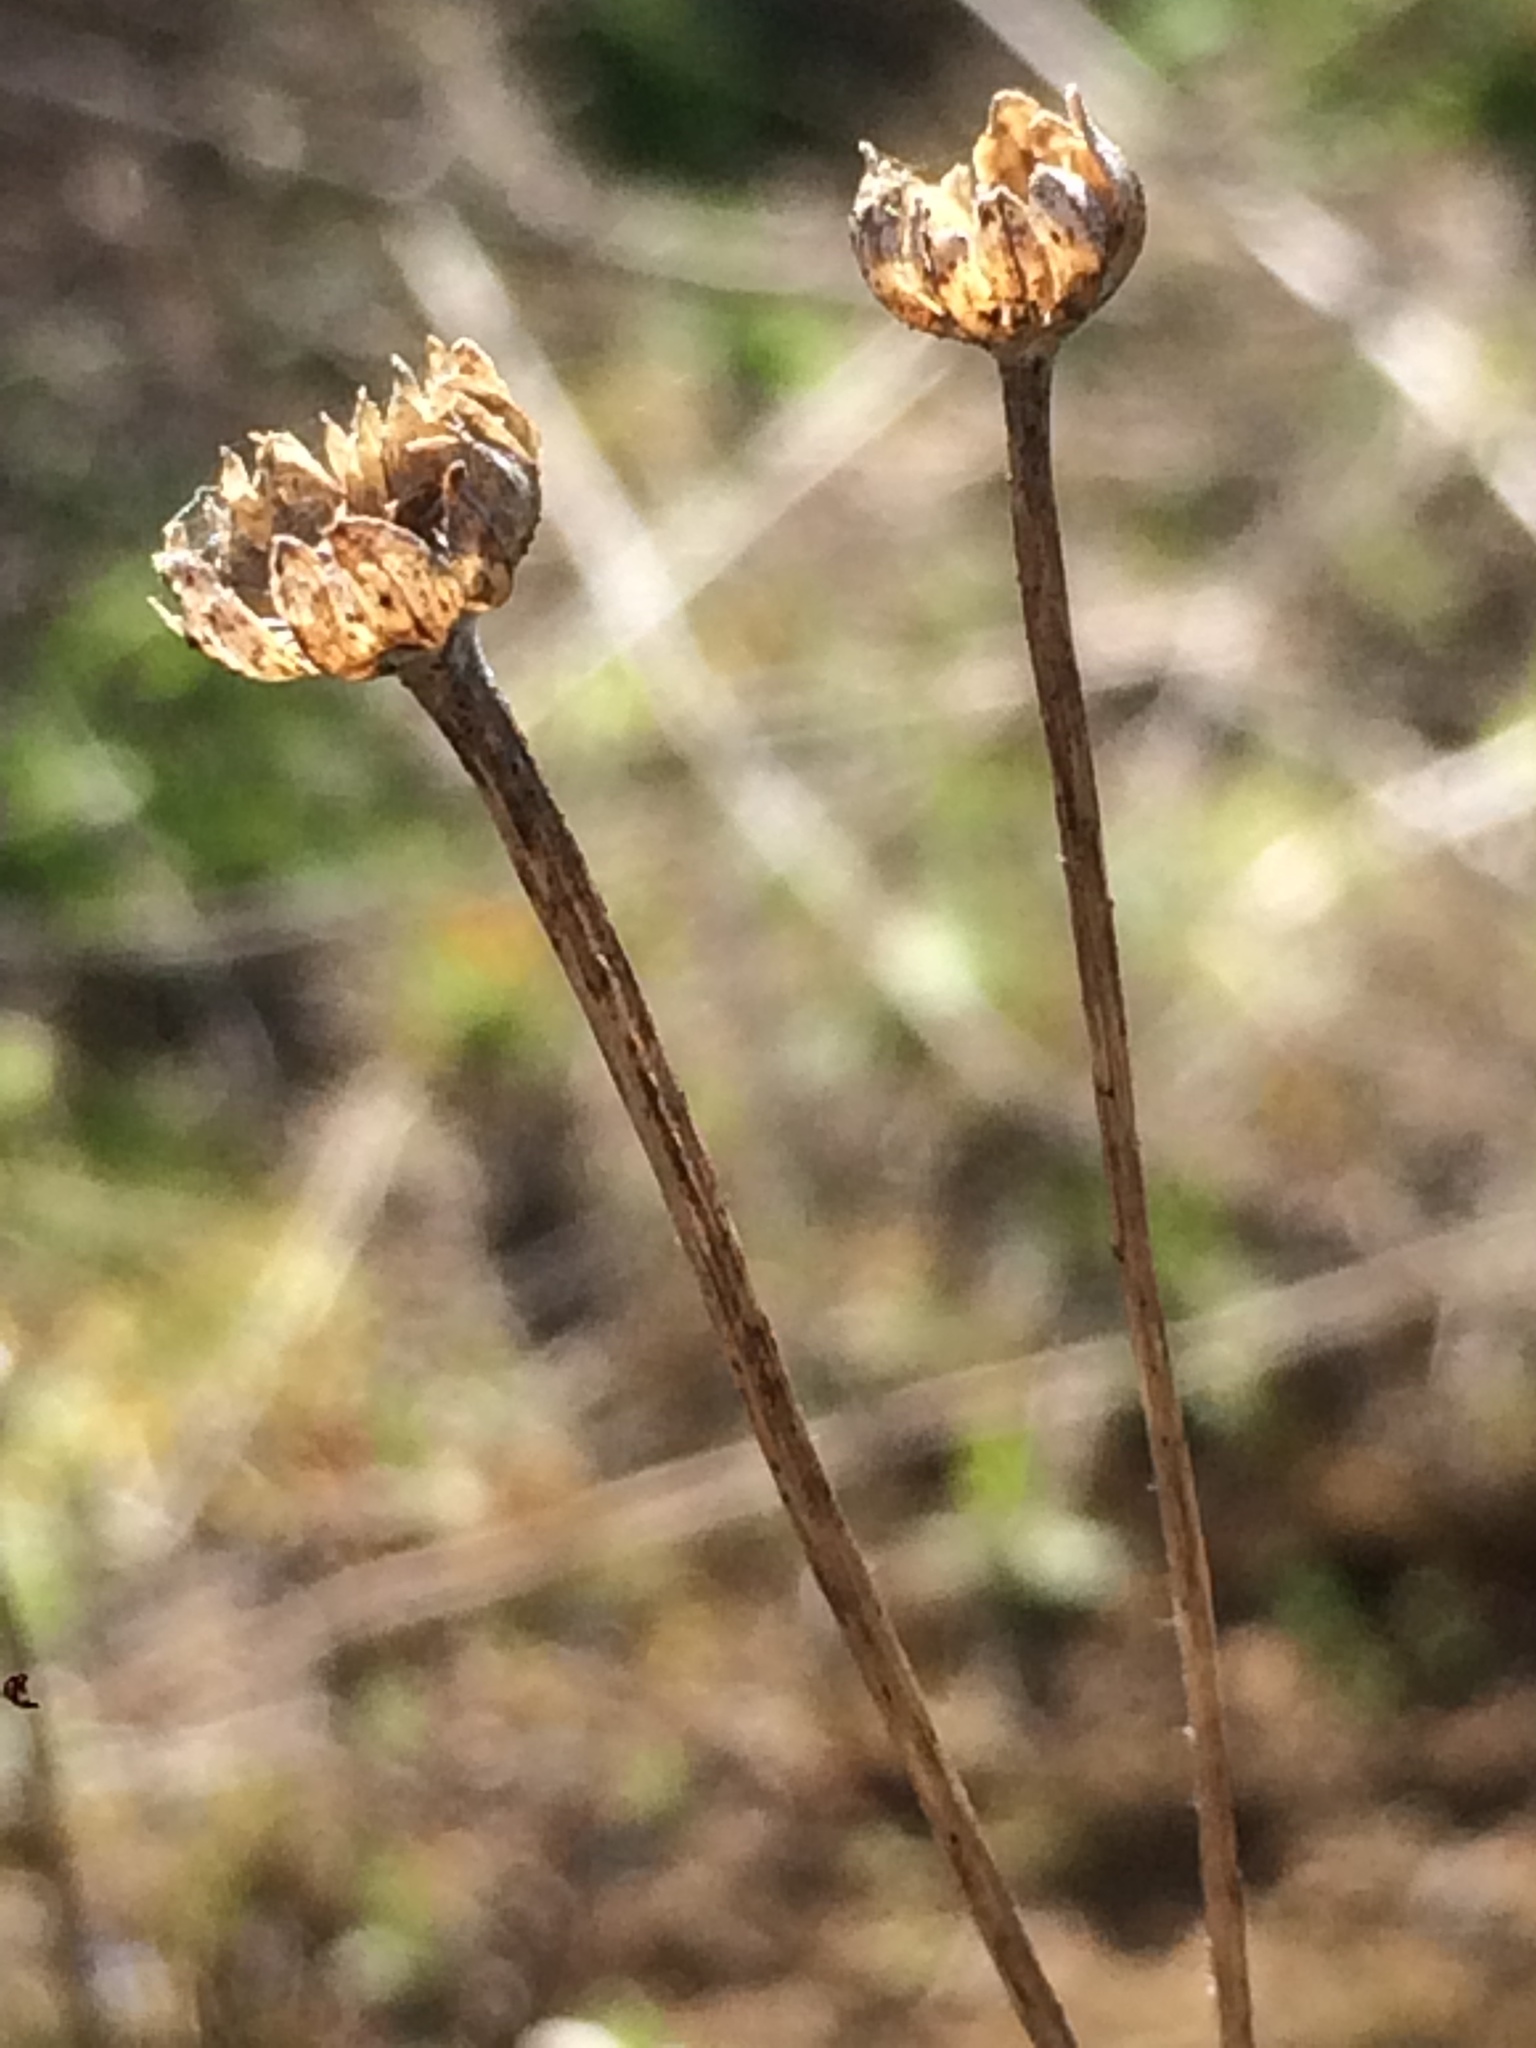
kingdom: Plantae
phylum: Tracheophyta
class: Magnoliopsida
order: Asterales
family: Asteraceae
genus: Eriophyllum
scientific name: Eriophyllum lanatum
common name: Common woolly-sunflower
